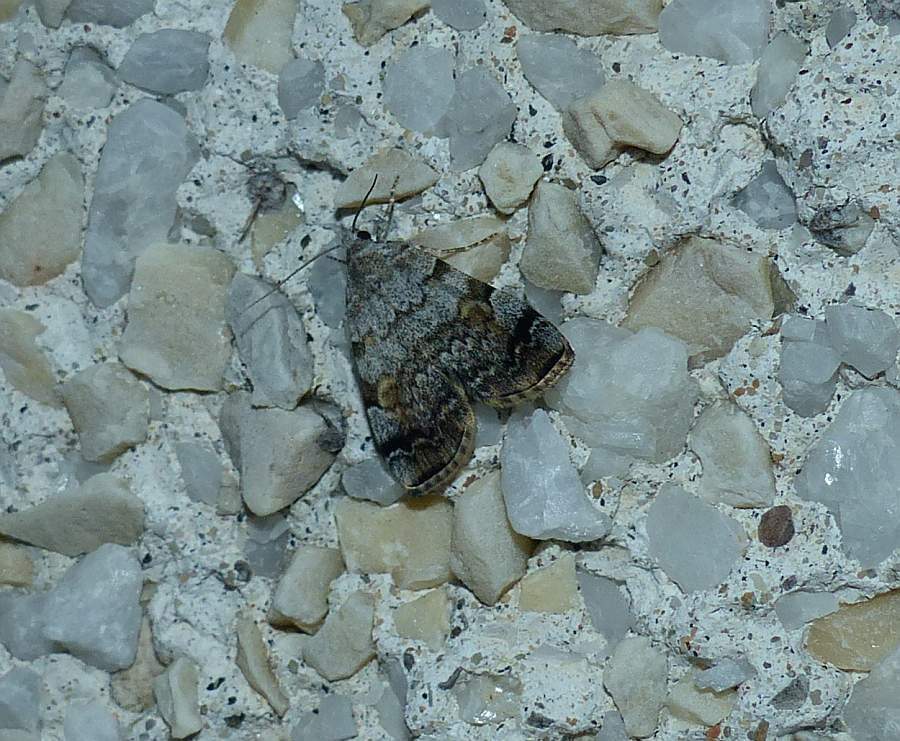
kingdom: Animalia
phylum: Arthropoda
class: Insecta
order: Lepidoptera
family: Erebidae
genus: Idia
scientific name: Idia americalis
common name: American idia moth
